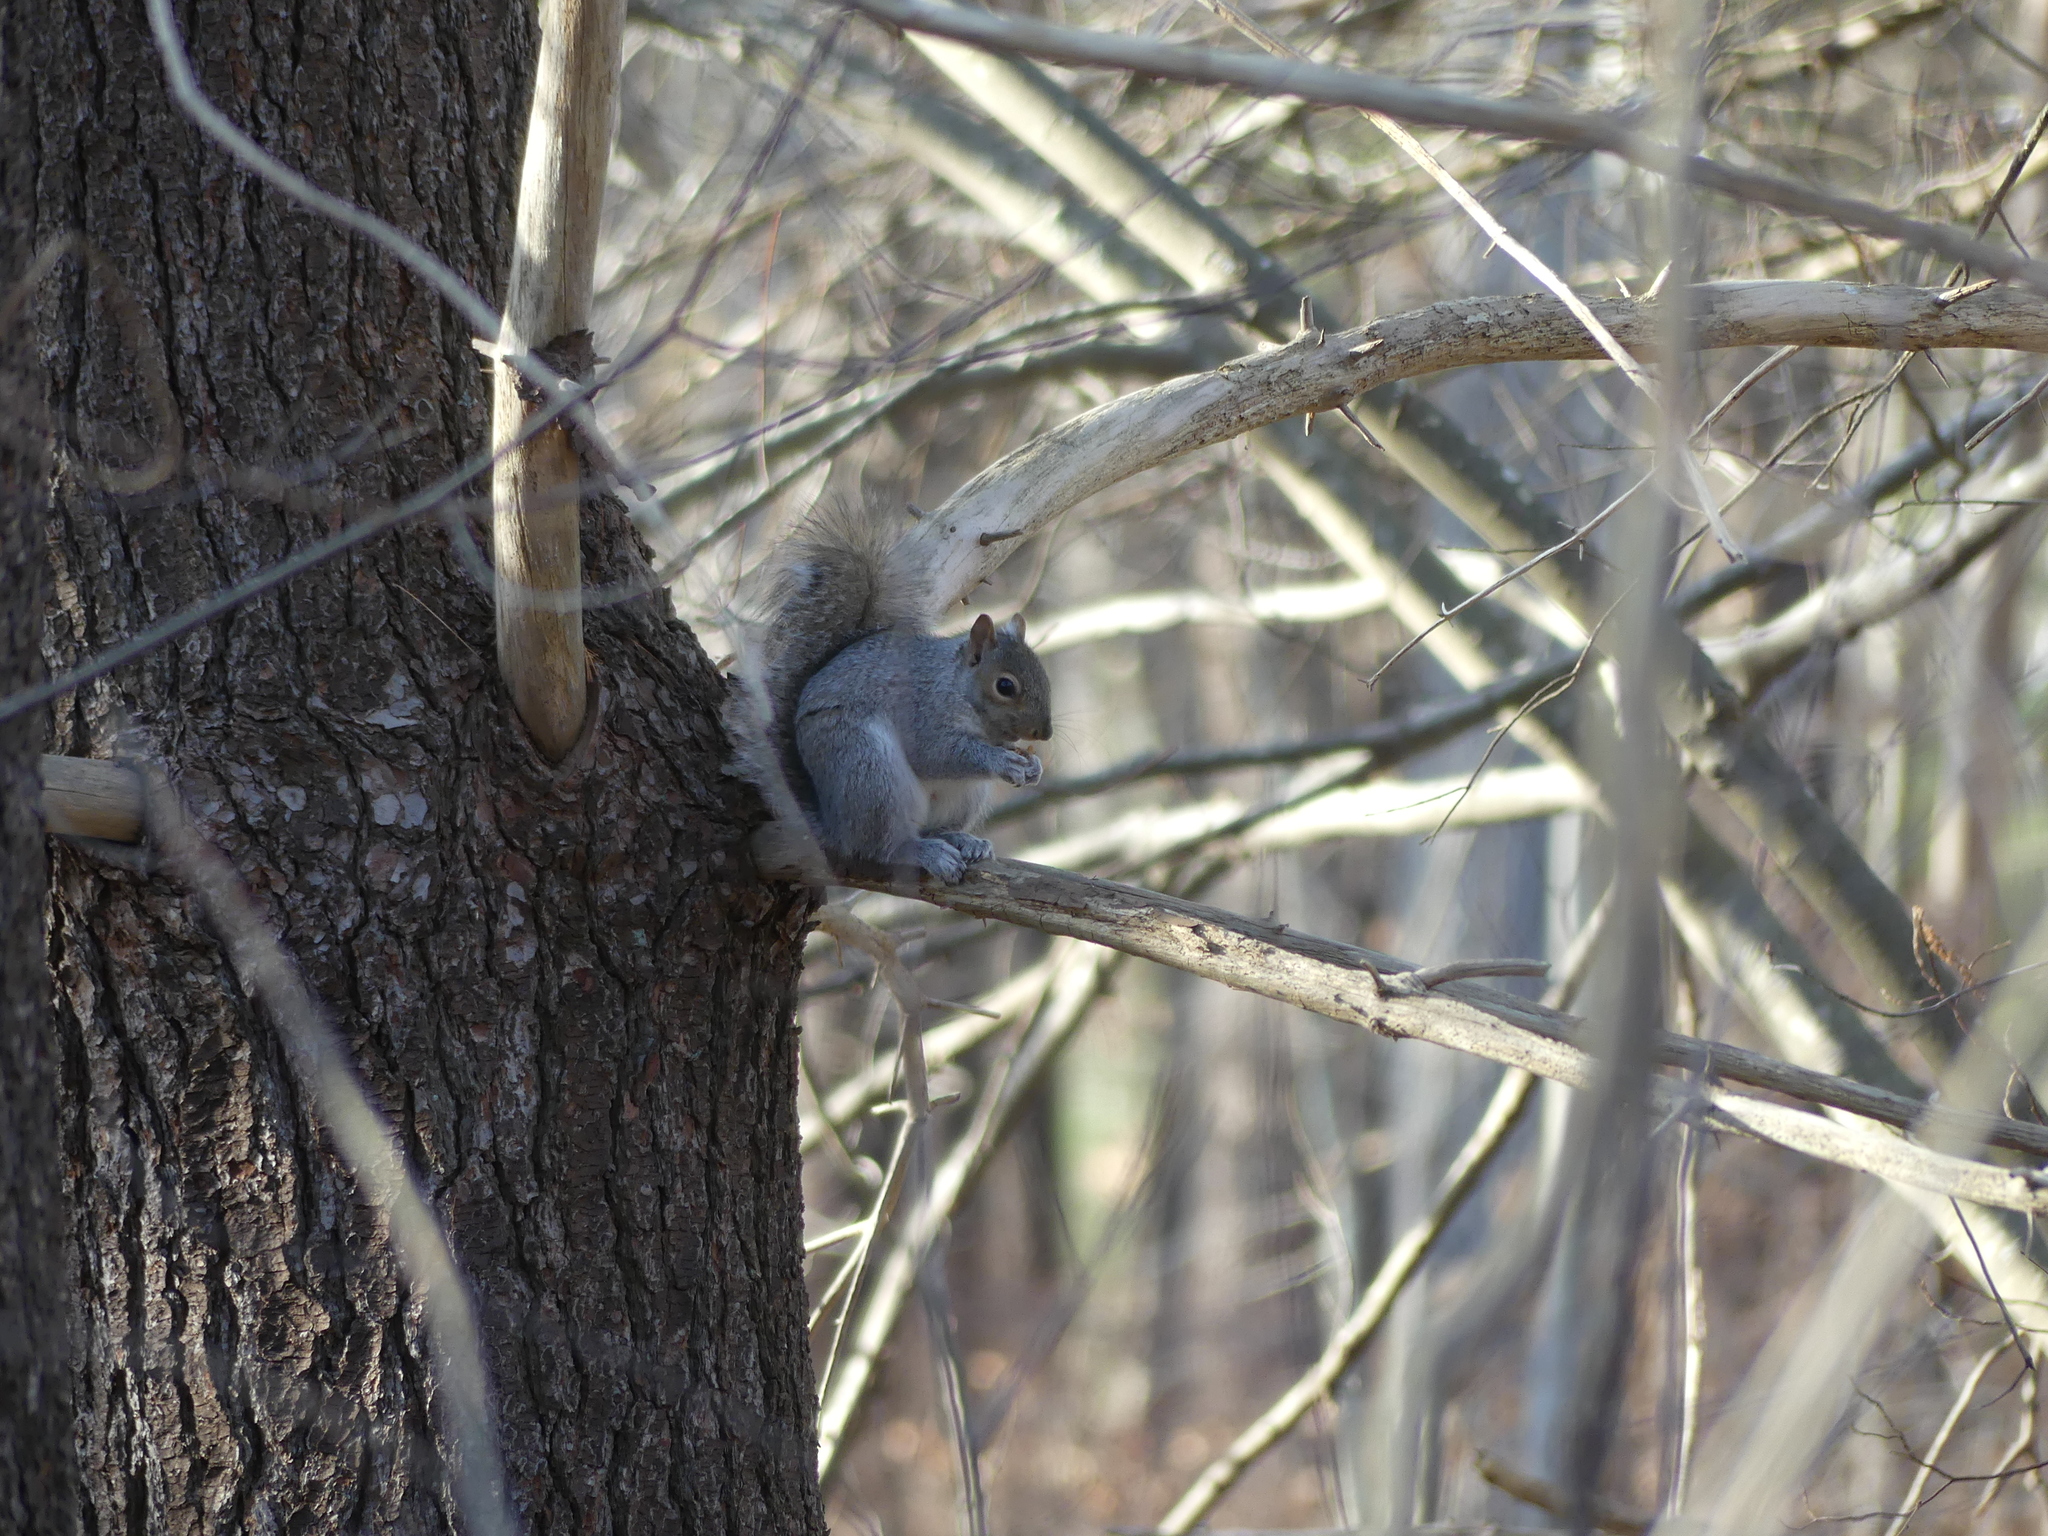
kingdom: Animalia
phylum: Chordata
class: Mammalia
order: Rodentia
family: Sciuridae
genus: Sciurus
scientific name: Sciurus carolinensis
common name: Eastern gray squirrel
